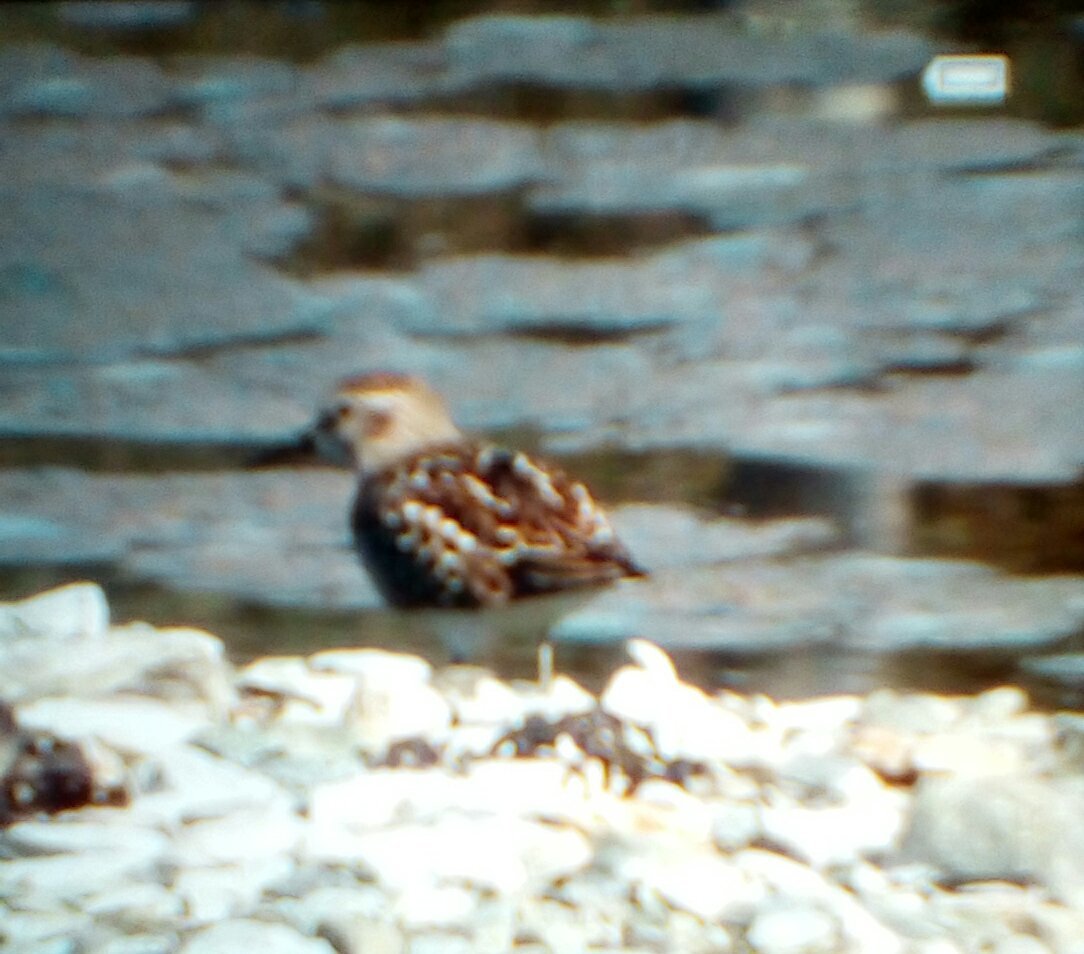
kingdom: Animalia
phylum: Chordata
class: Aves
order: Charadriiformes
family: Scolopacidae
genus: Calidris
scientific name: Calidris minutilla
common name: Least sandpiper
